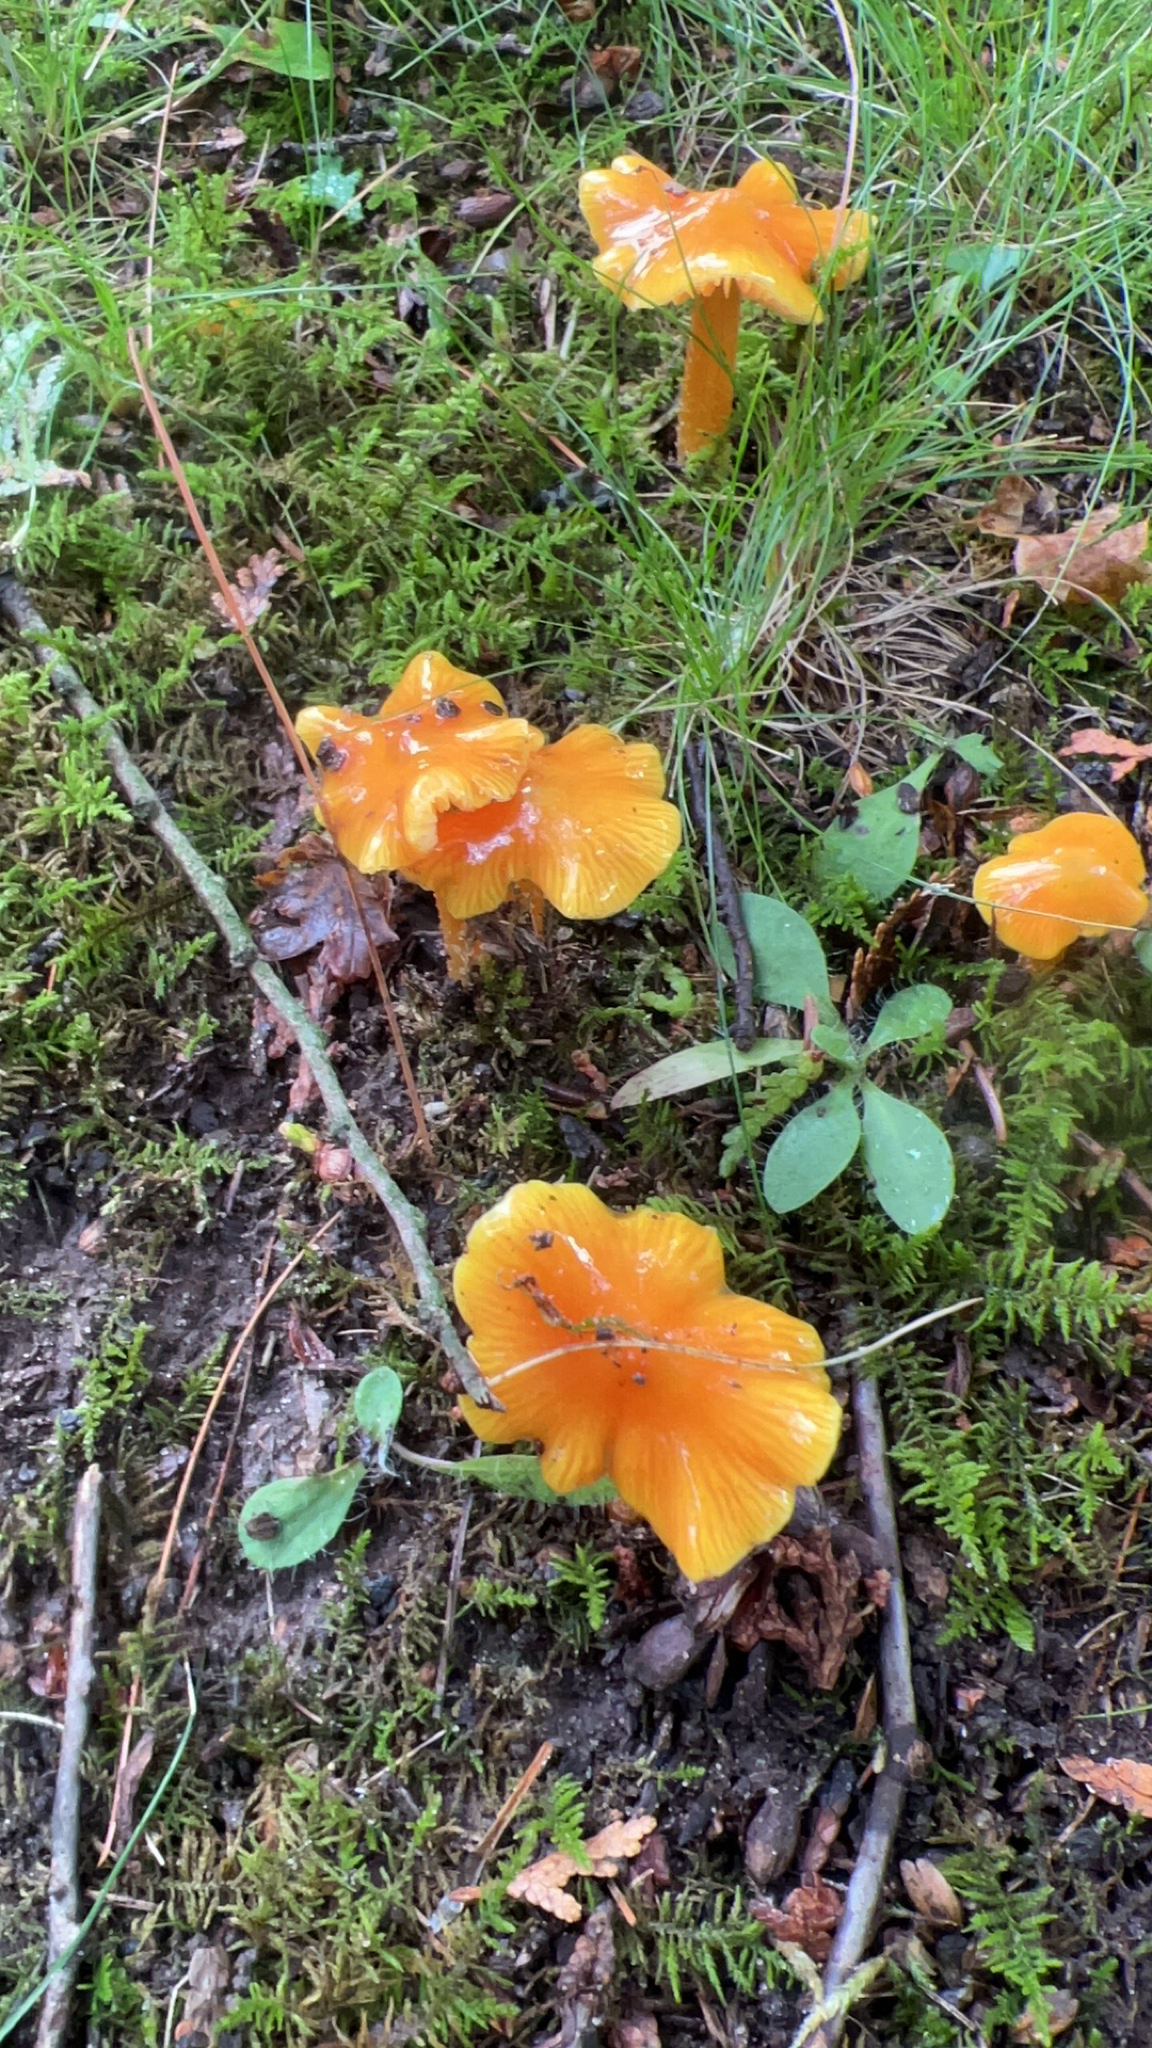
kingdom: Fungi
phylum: Basidiomycota
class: Agaricomycetes
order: Agaricales
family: Hygrophoraceae
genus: Hygrocybe
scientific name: Hygrocybe acutoconica
